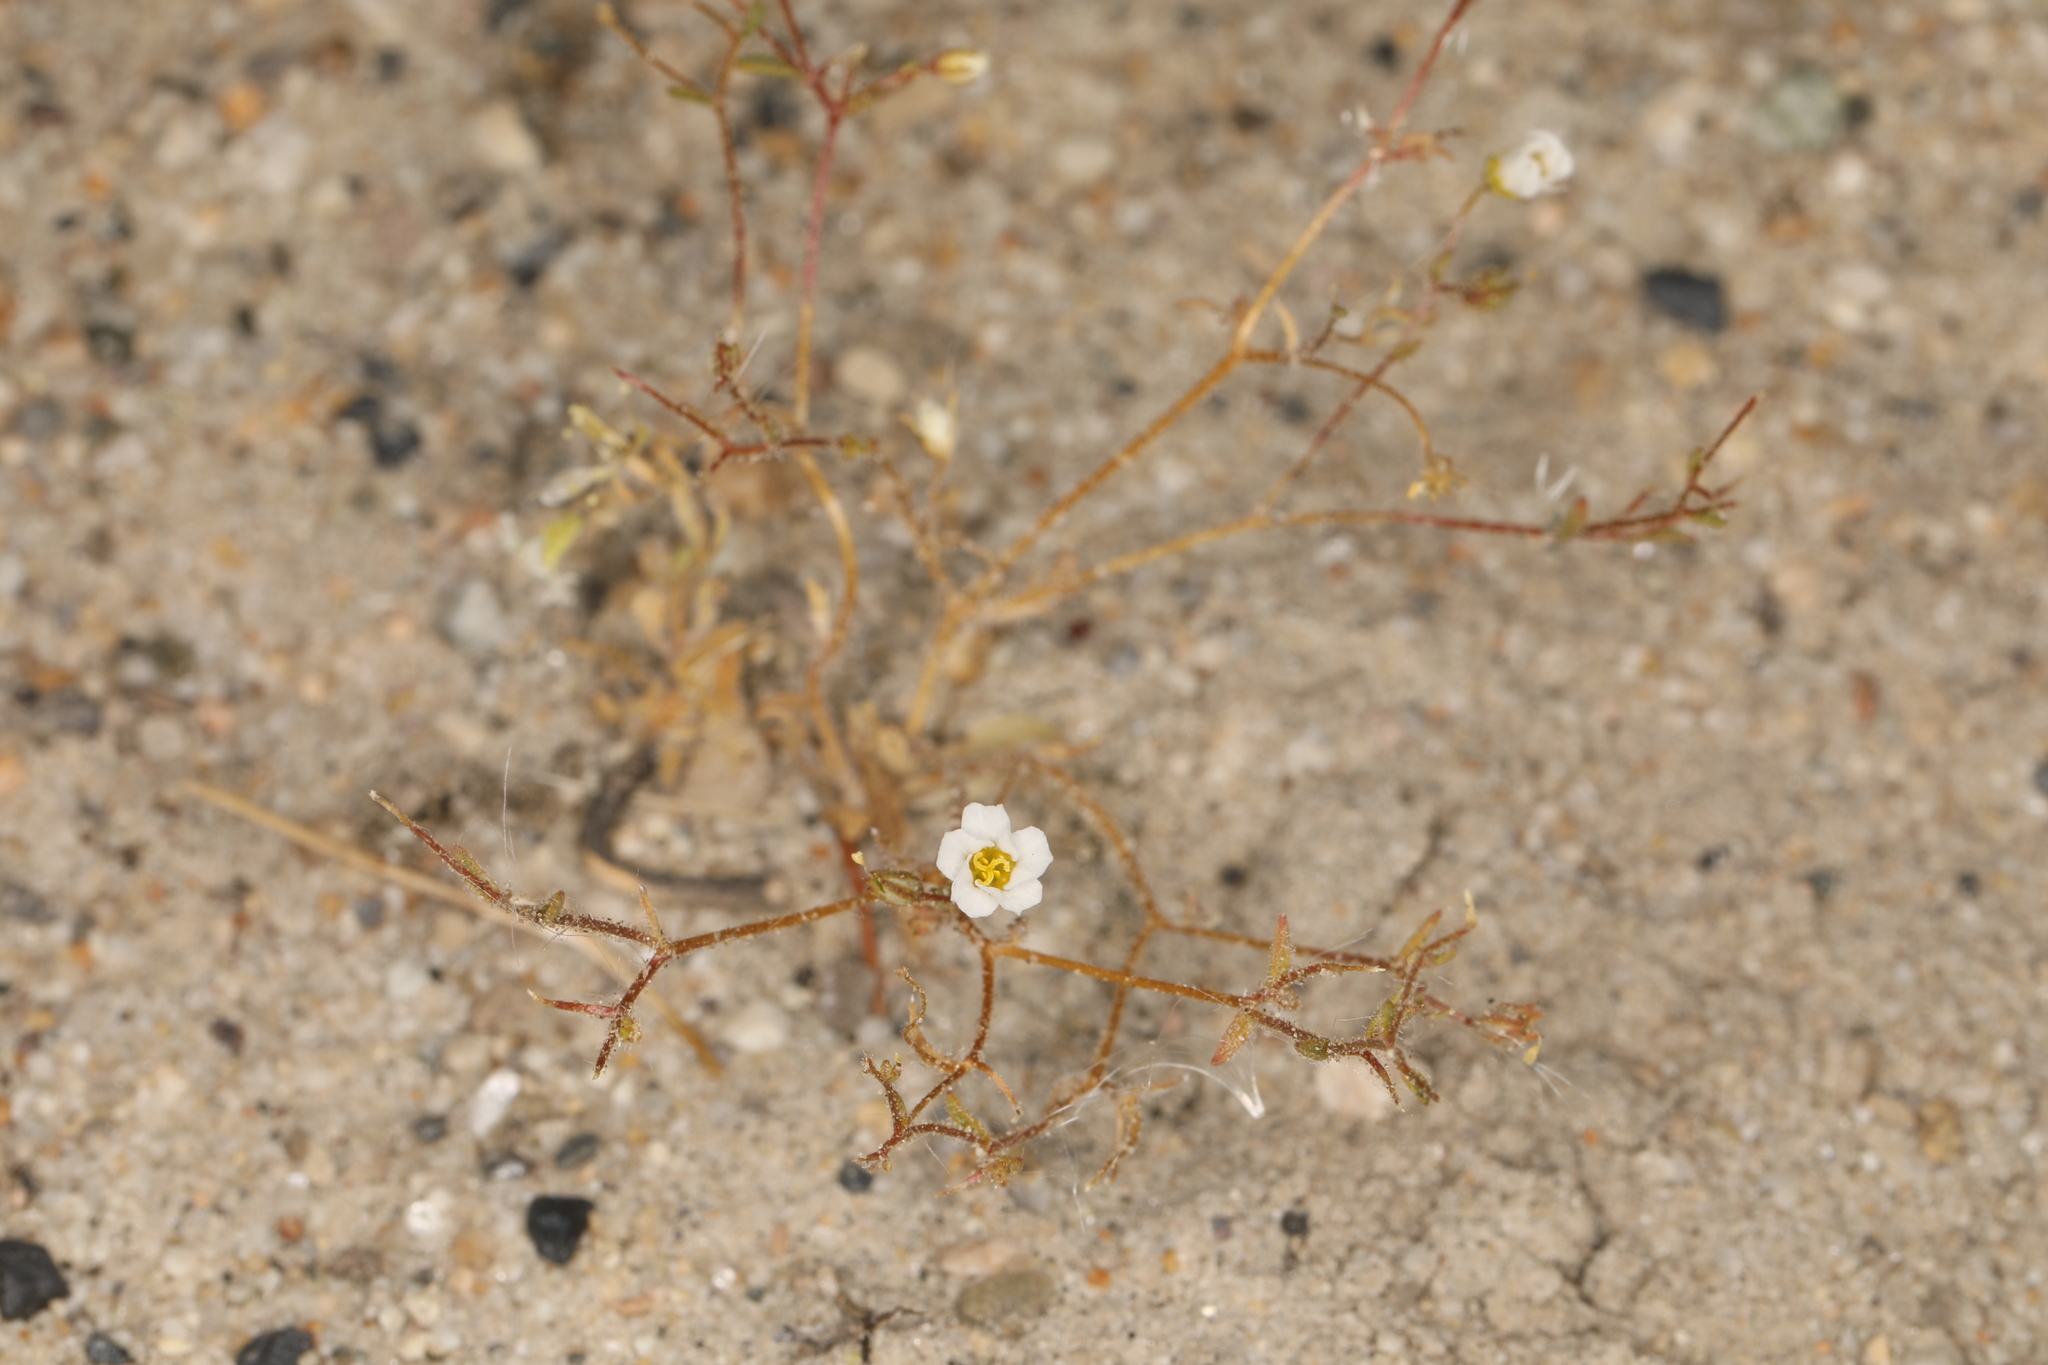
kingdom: Plantae
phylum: Tracheophyta
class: Magnoliopsida
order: Ericales
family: Polemoniaceae
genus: Linanthus
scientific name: Linanthus inyoensis
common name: Inyo gilia
